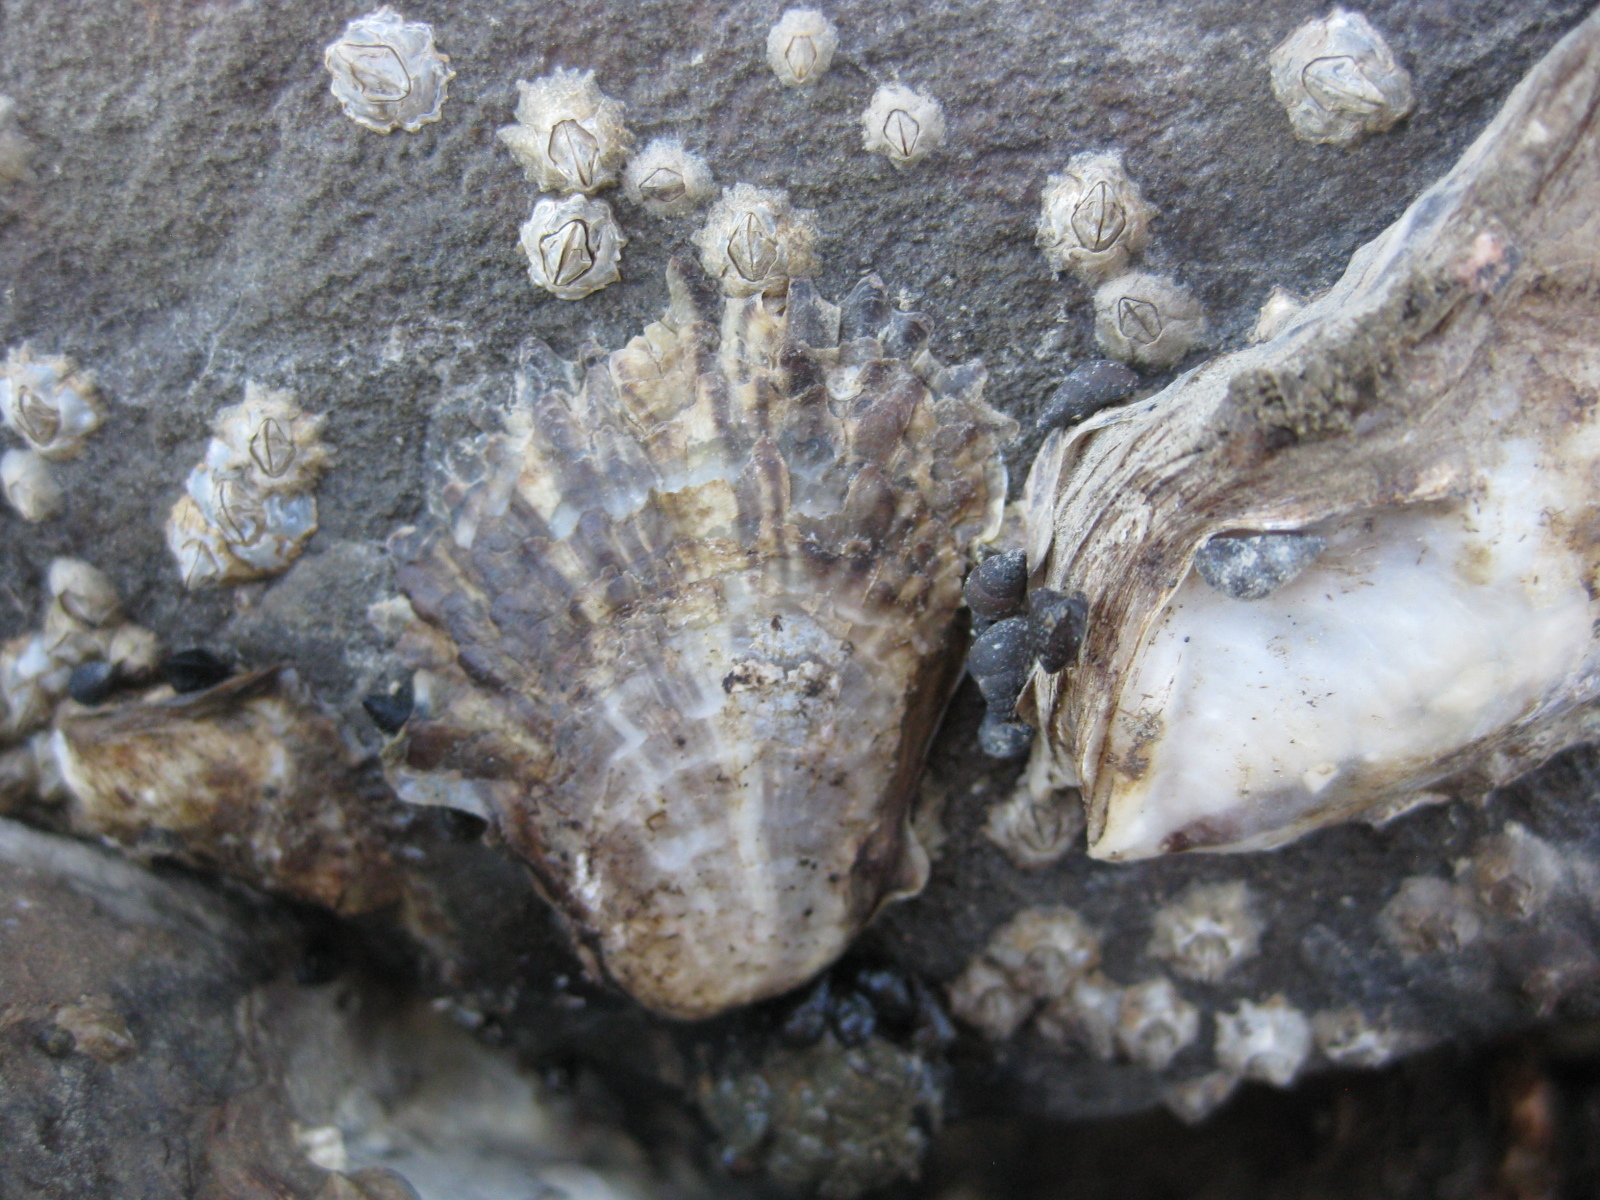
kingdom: Animalia
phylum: Mollusca
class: Bivalvia
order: Ostreida
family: Ostreidae
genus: Magallana
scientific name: Magallana gigas
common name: Pacific oyster
